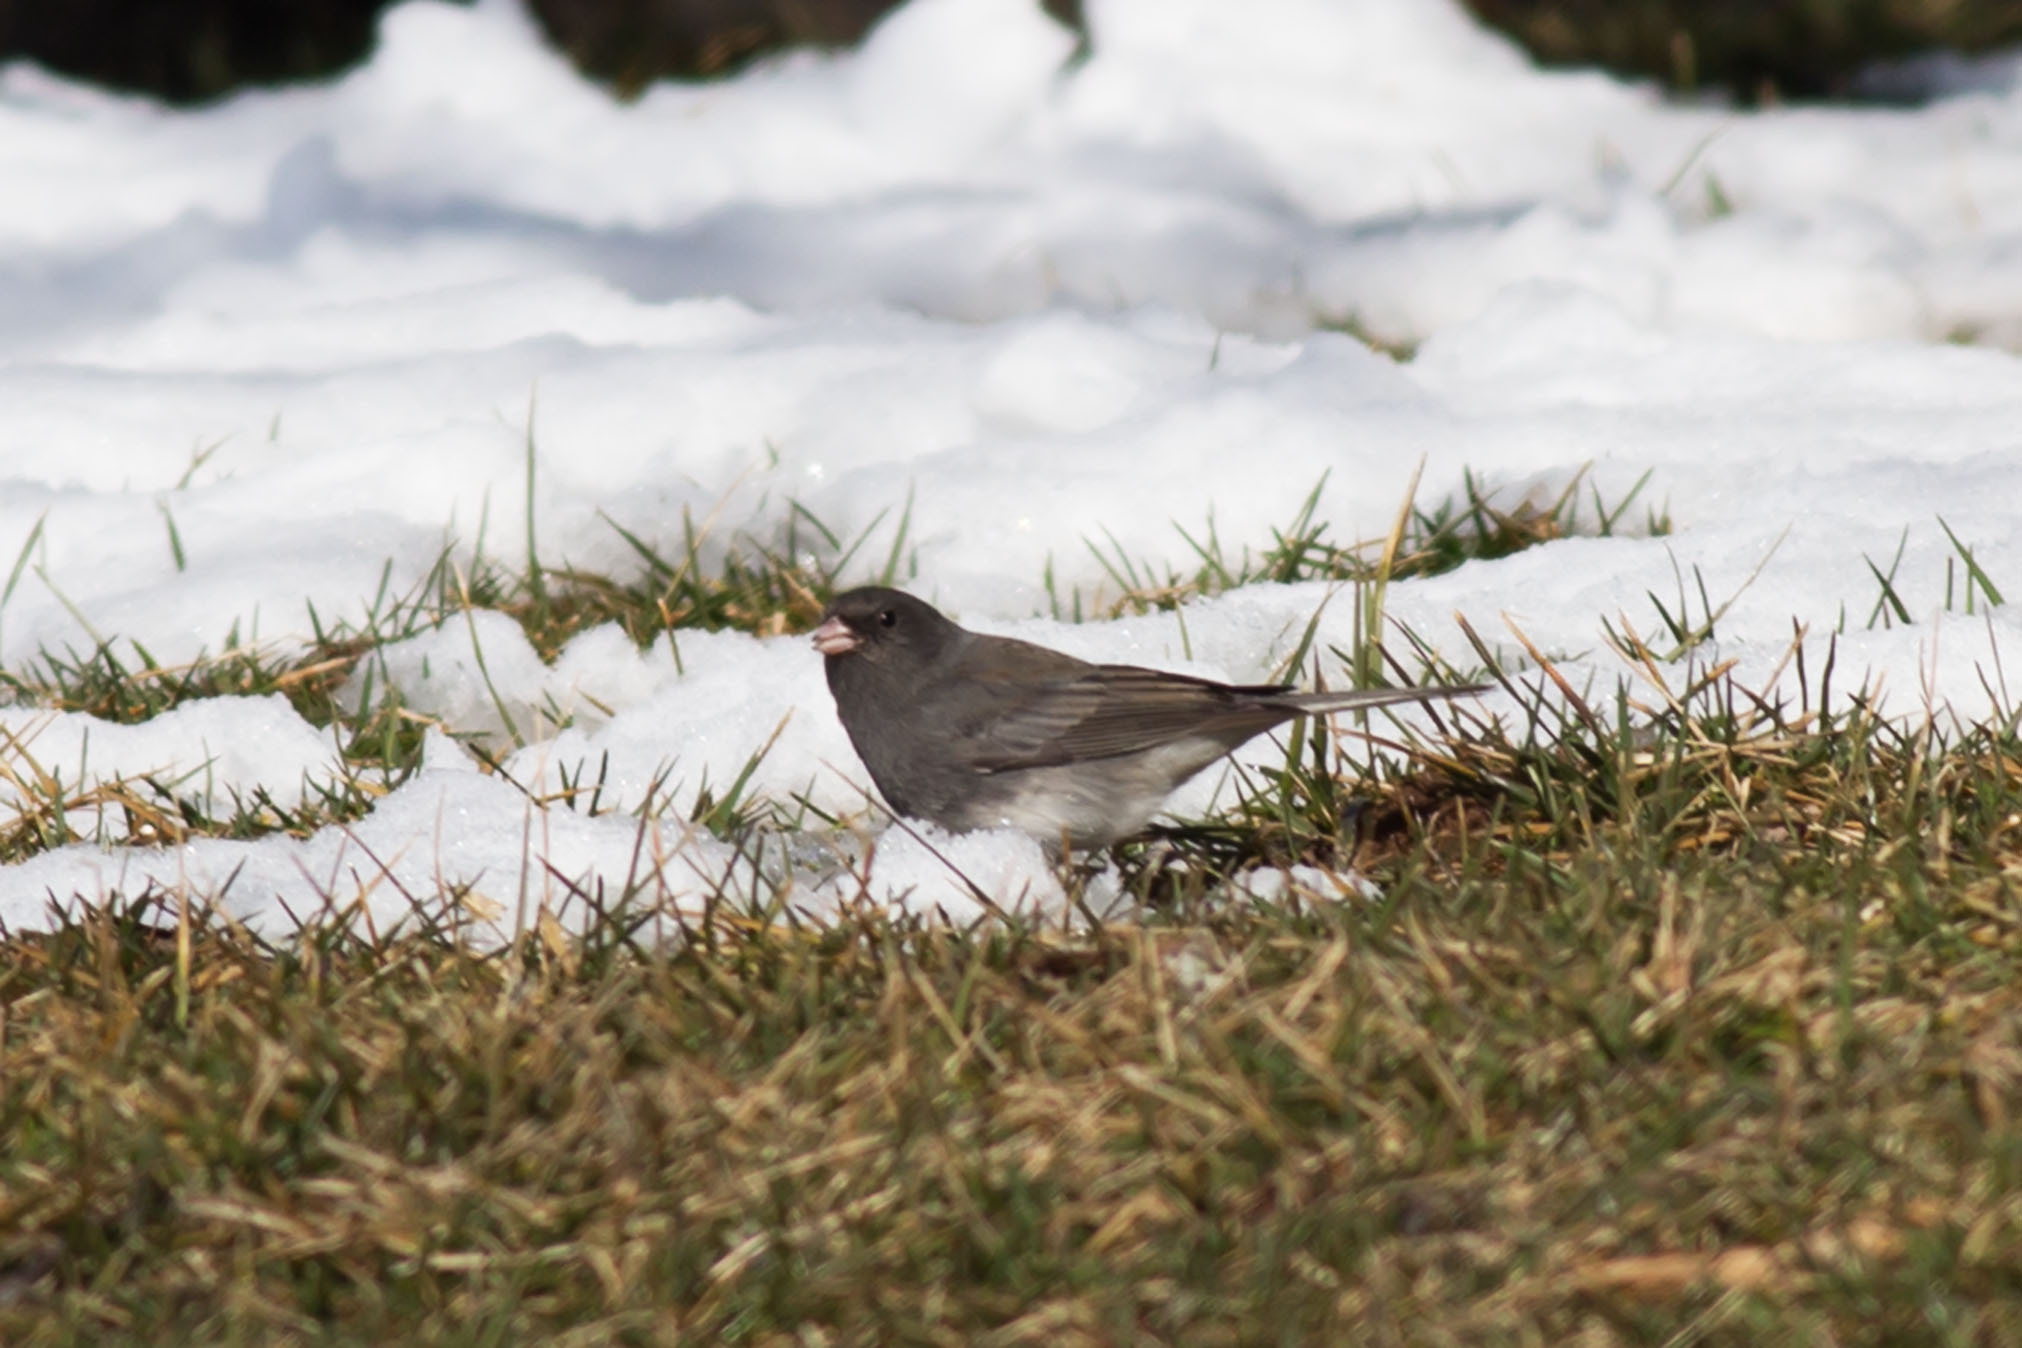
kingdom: Animalia
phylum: Chordata
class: Aves
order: Passeriformes
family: Passerellidae
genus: Junco
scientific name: Junco hyemalis
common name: Dark-eyed junco
